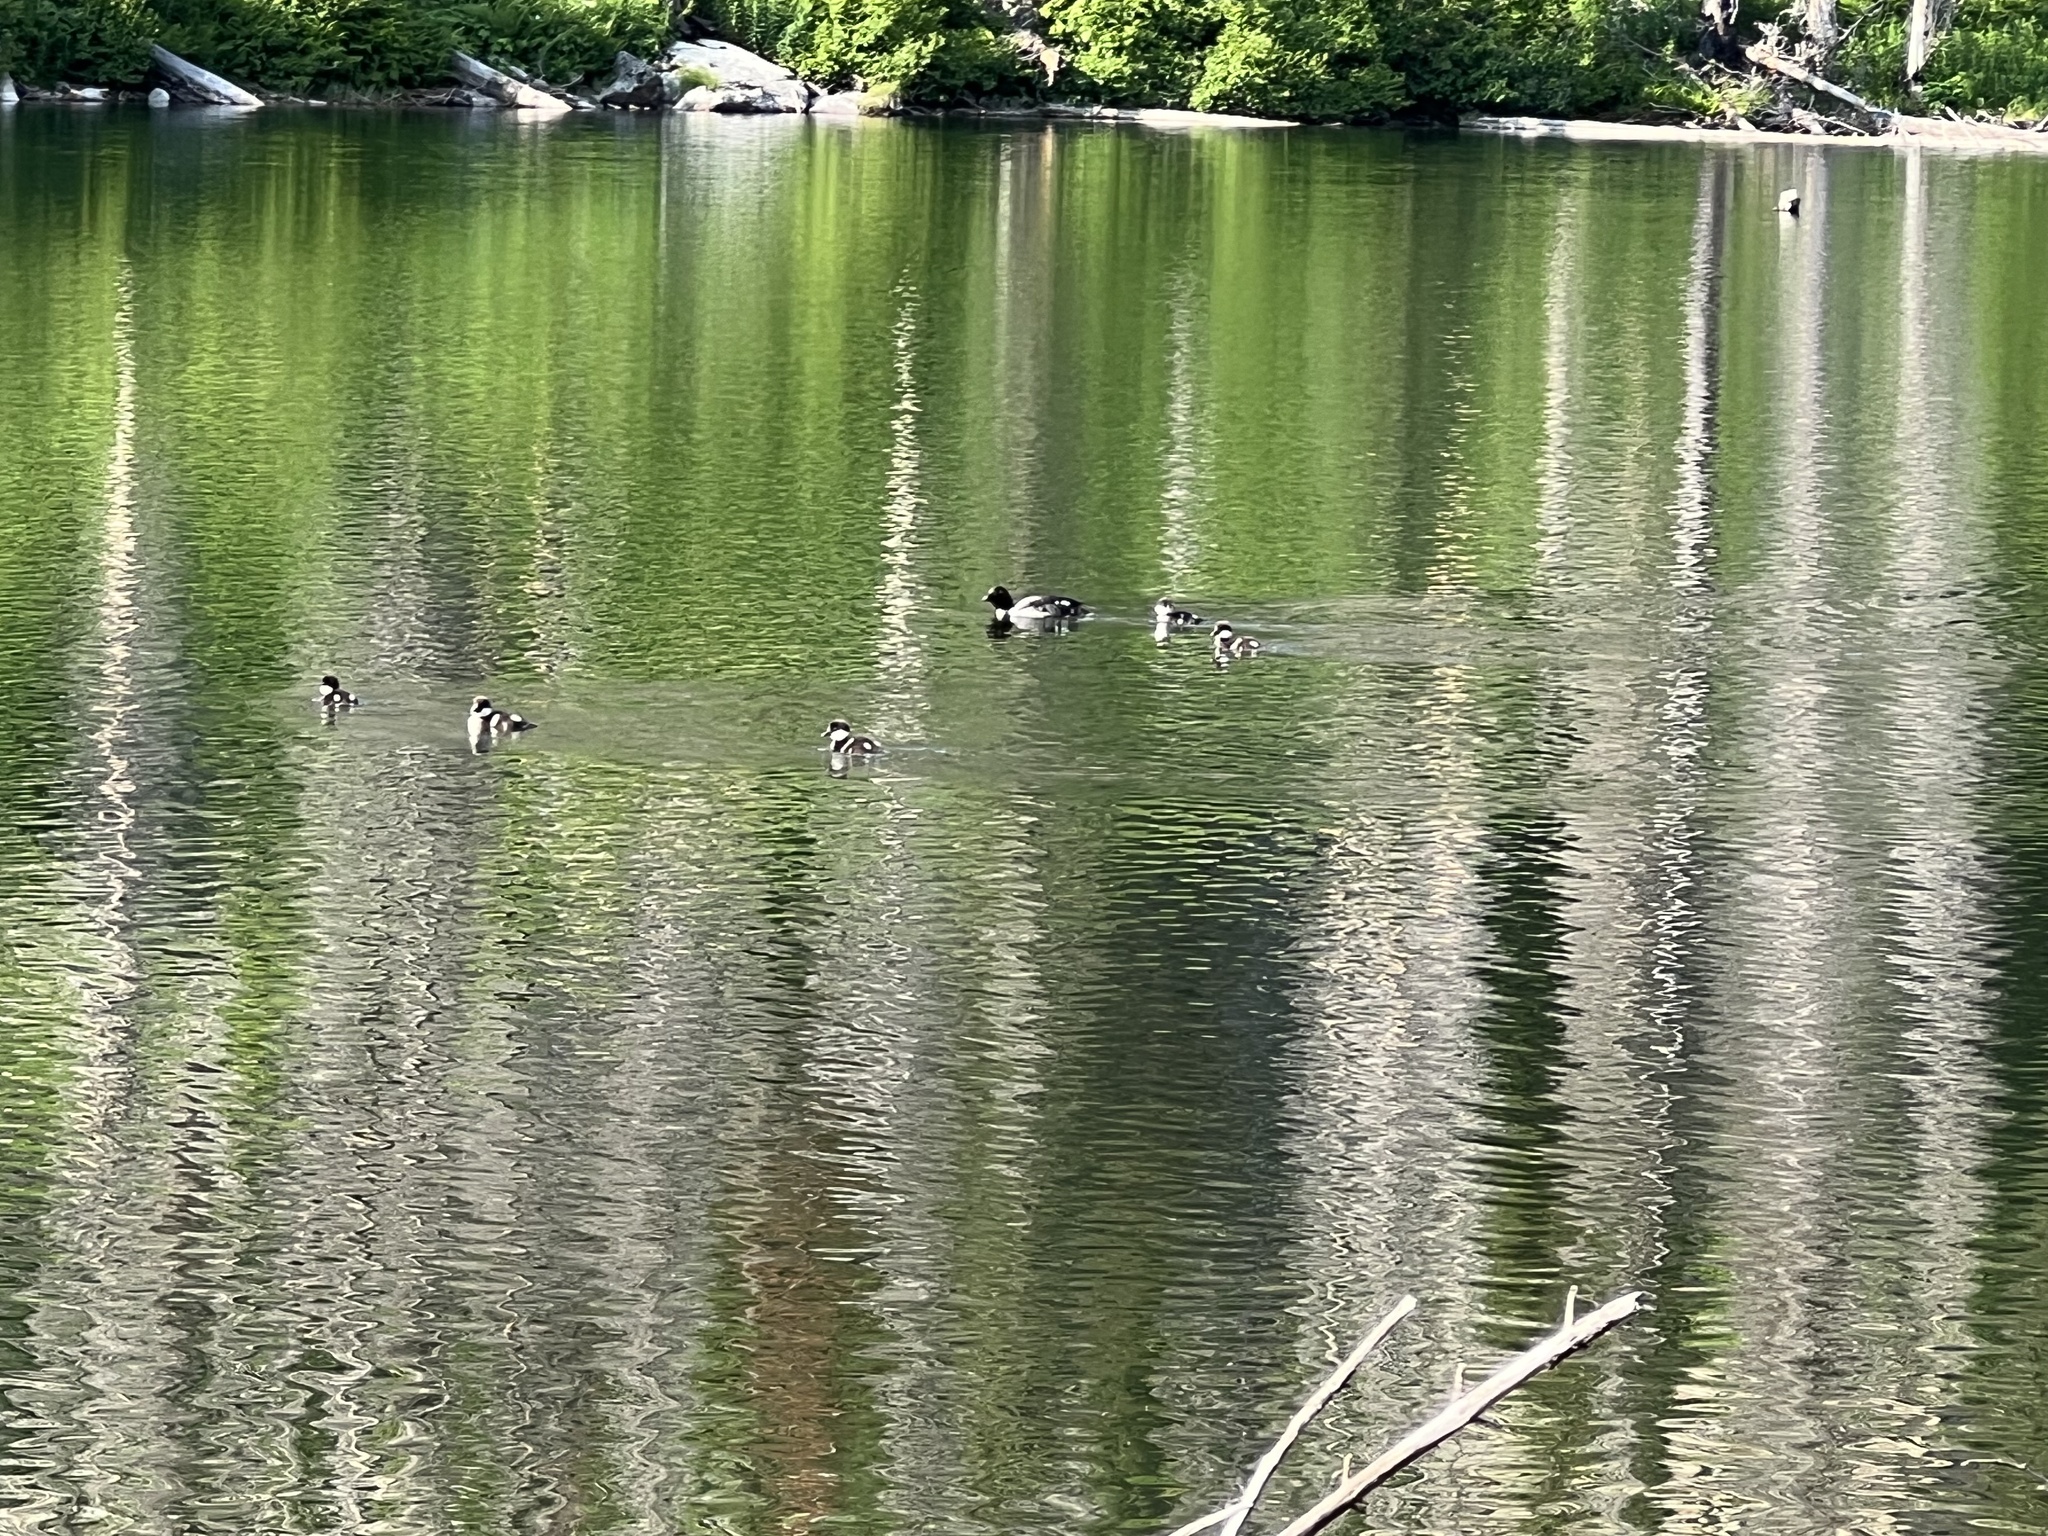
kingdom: Animalia
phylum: Chordata
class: Aves
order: Anseriformes
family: Anatidae
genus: Bucephala
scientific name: Bucephala clangula
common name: Common goldeneye
